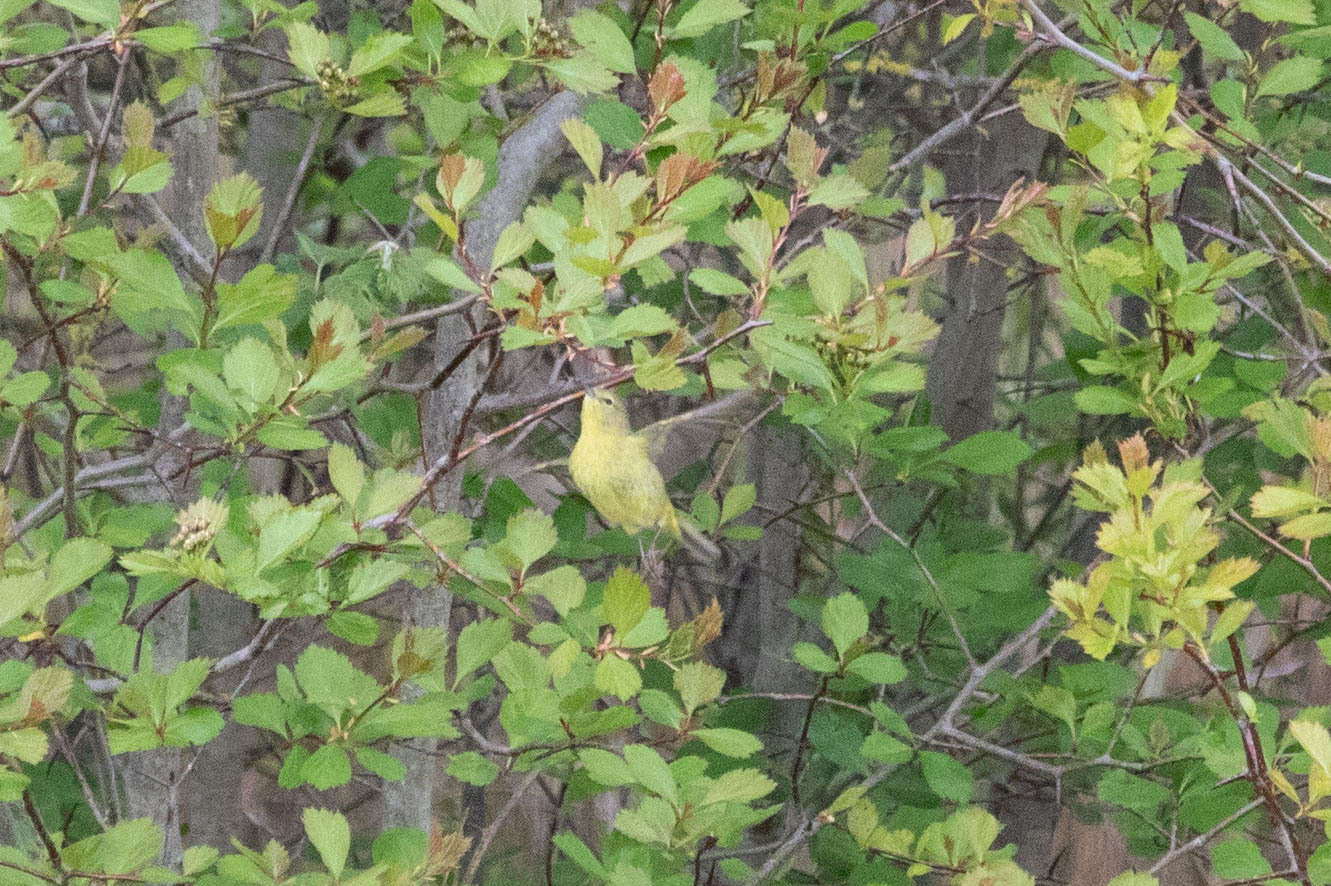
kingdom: Animalia
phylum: Chordata
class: Aves
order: Passeriformes
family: Parulidae
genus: Leiothlypis
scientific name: Leiothlypis celata
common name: Orange-crowned warbler
